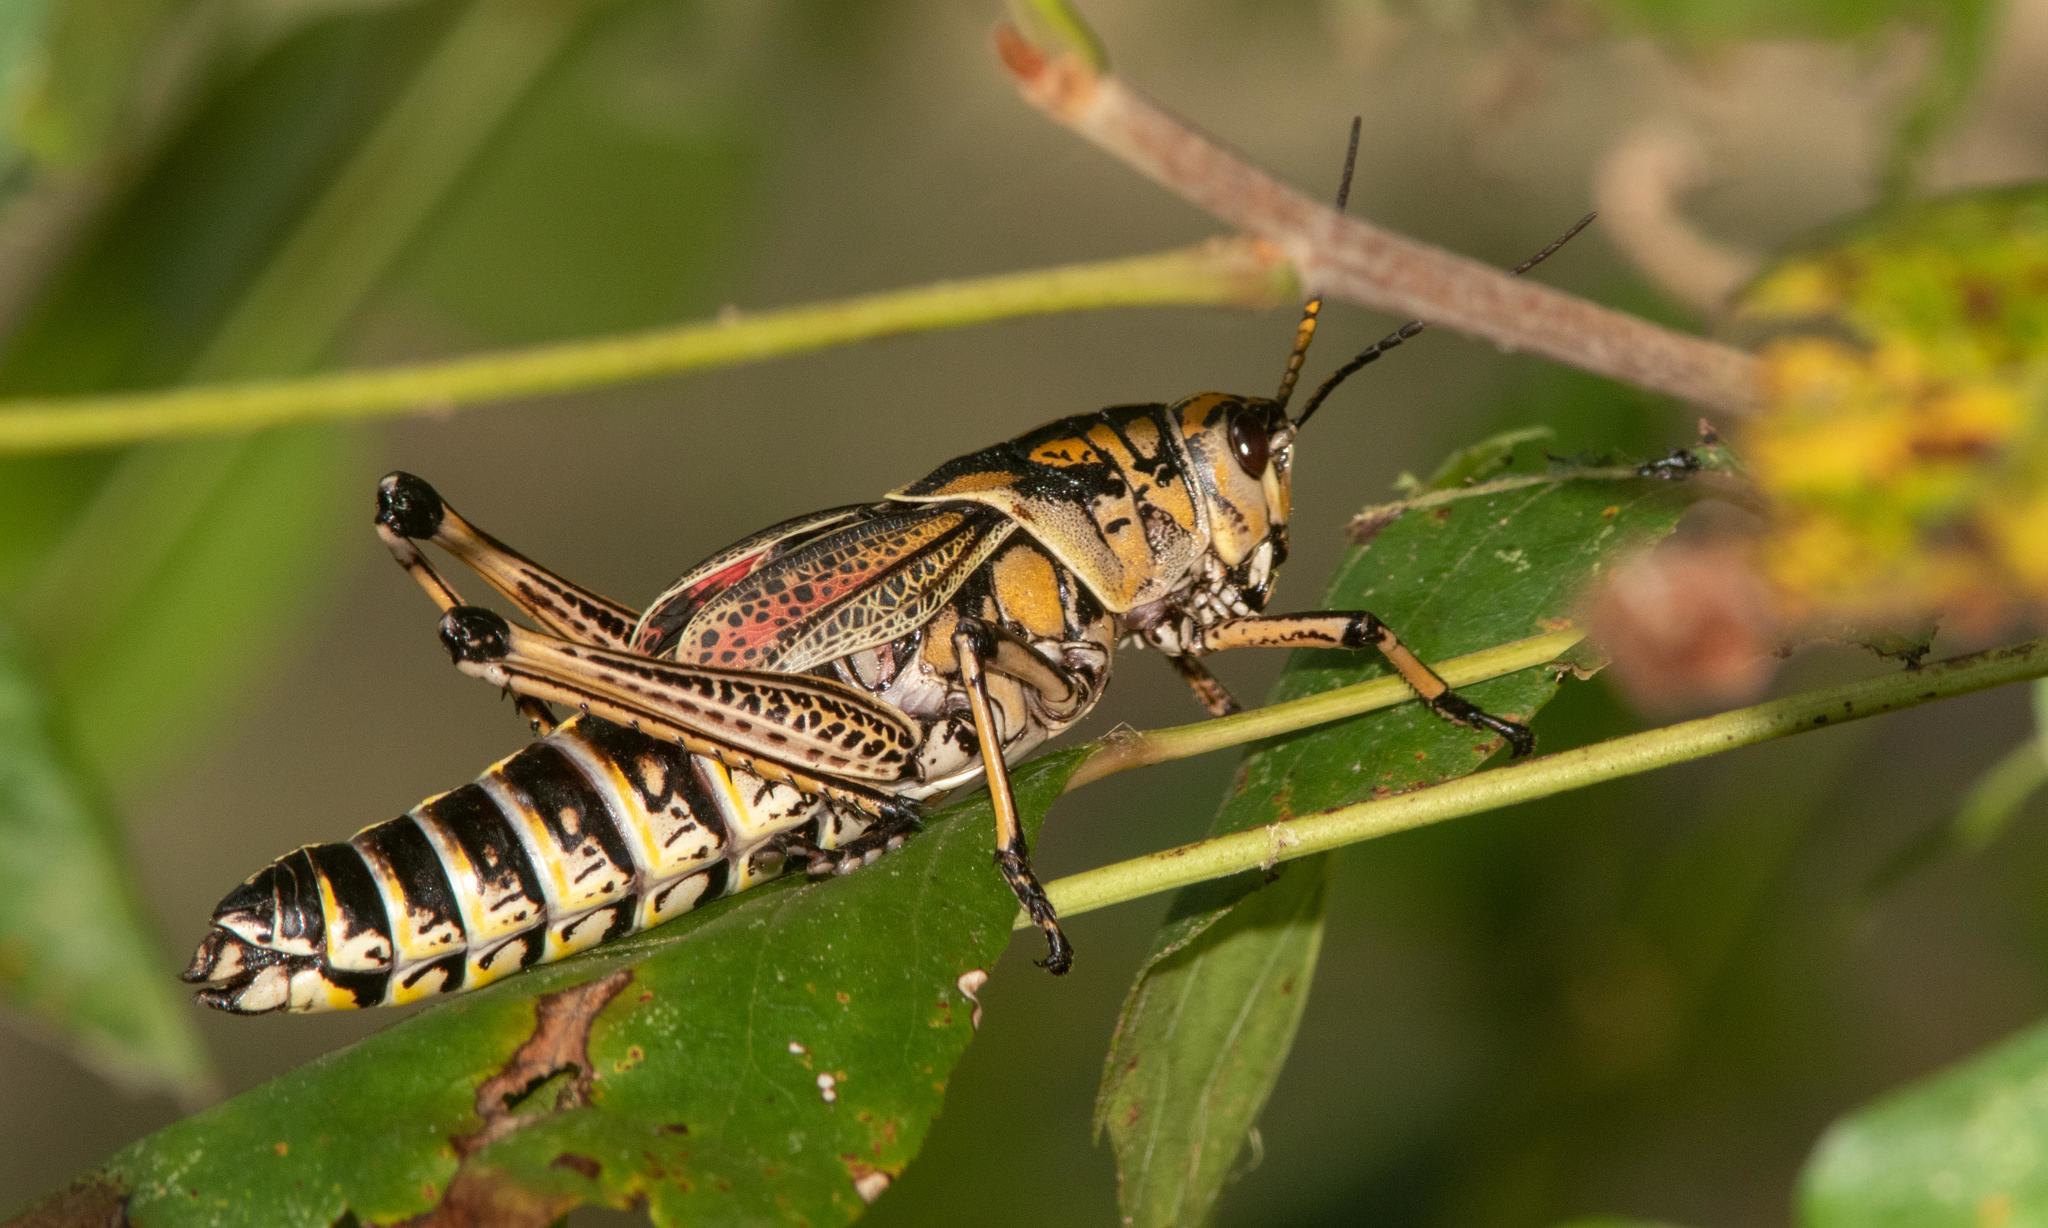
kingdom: Animalia
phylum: Arthropoda
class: Insecta
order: Orthoptera
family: Romaleidae
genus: Romalea
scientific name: Romalea microptera
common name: Eastern lubber grasshopper
